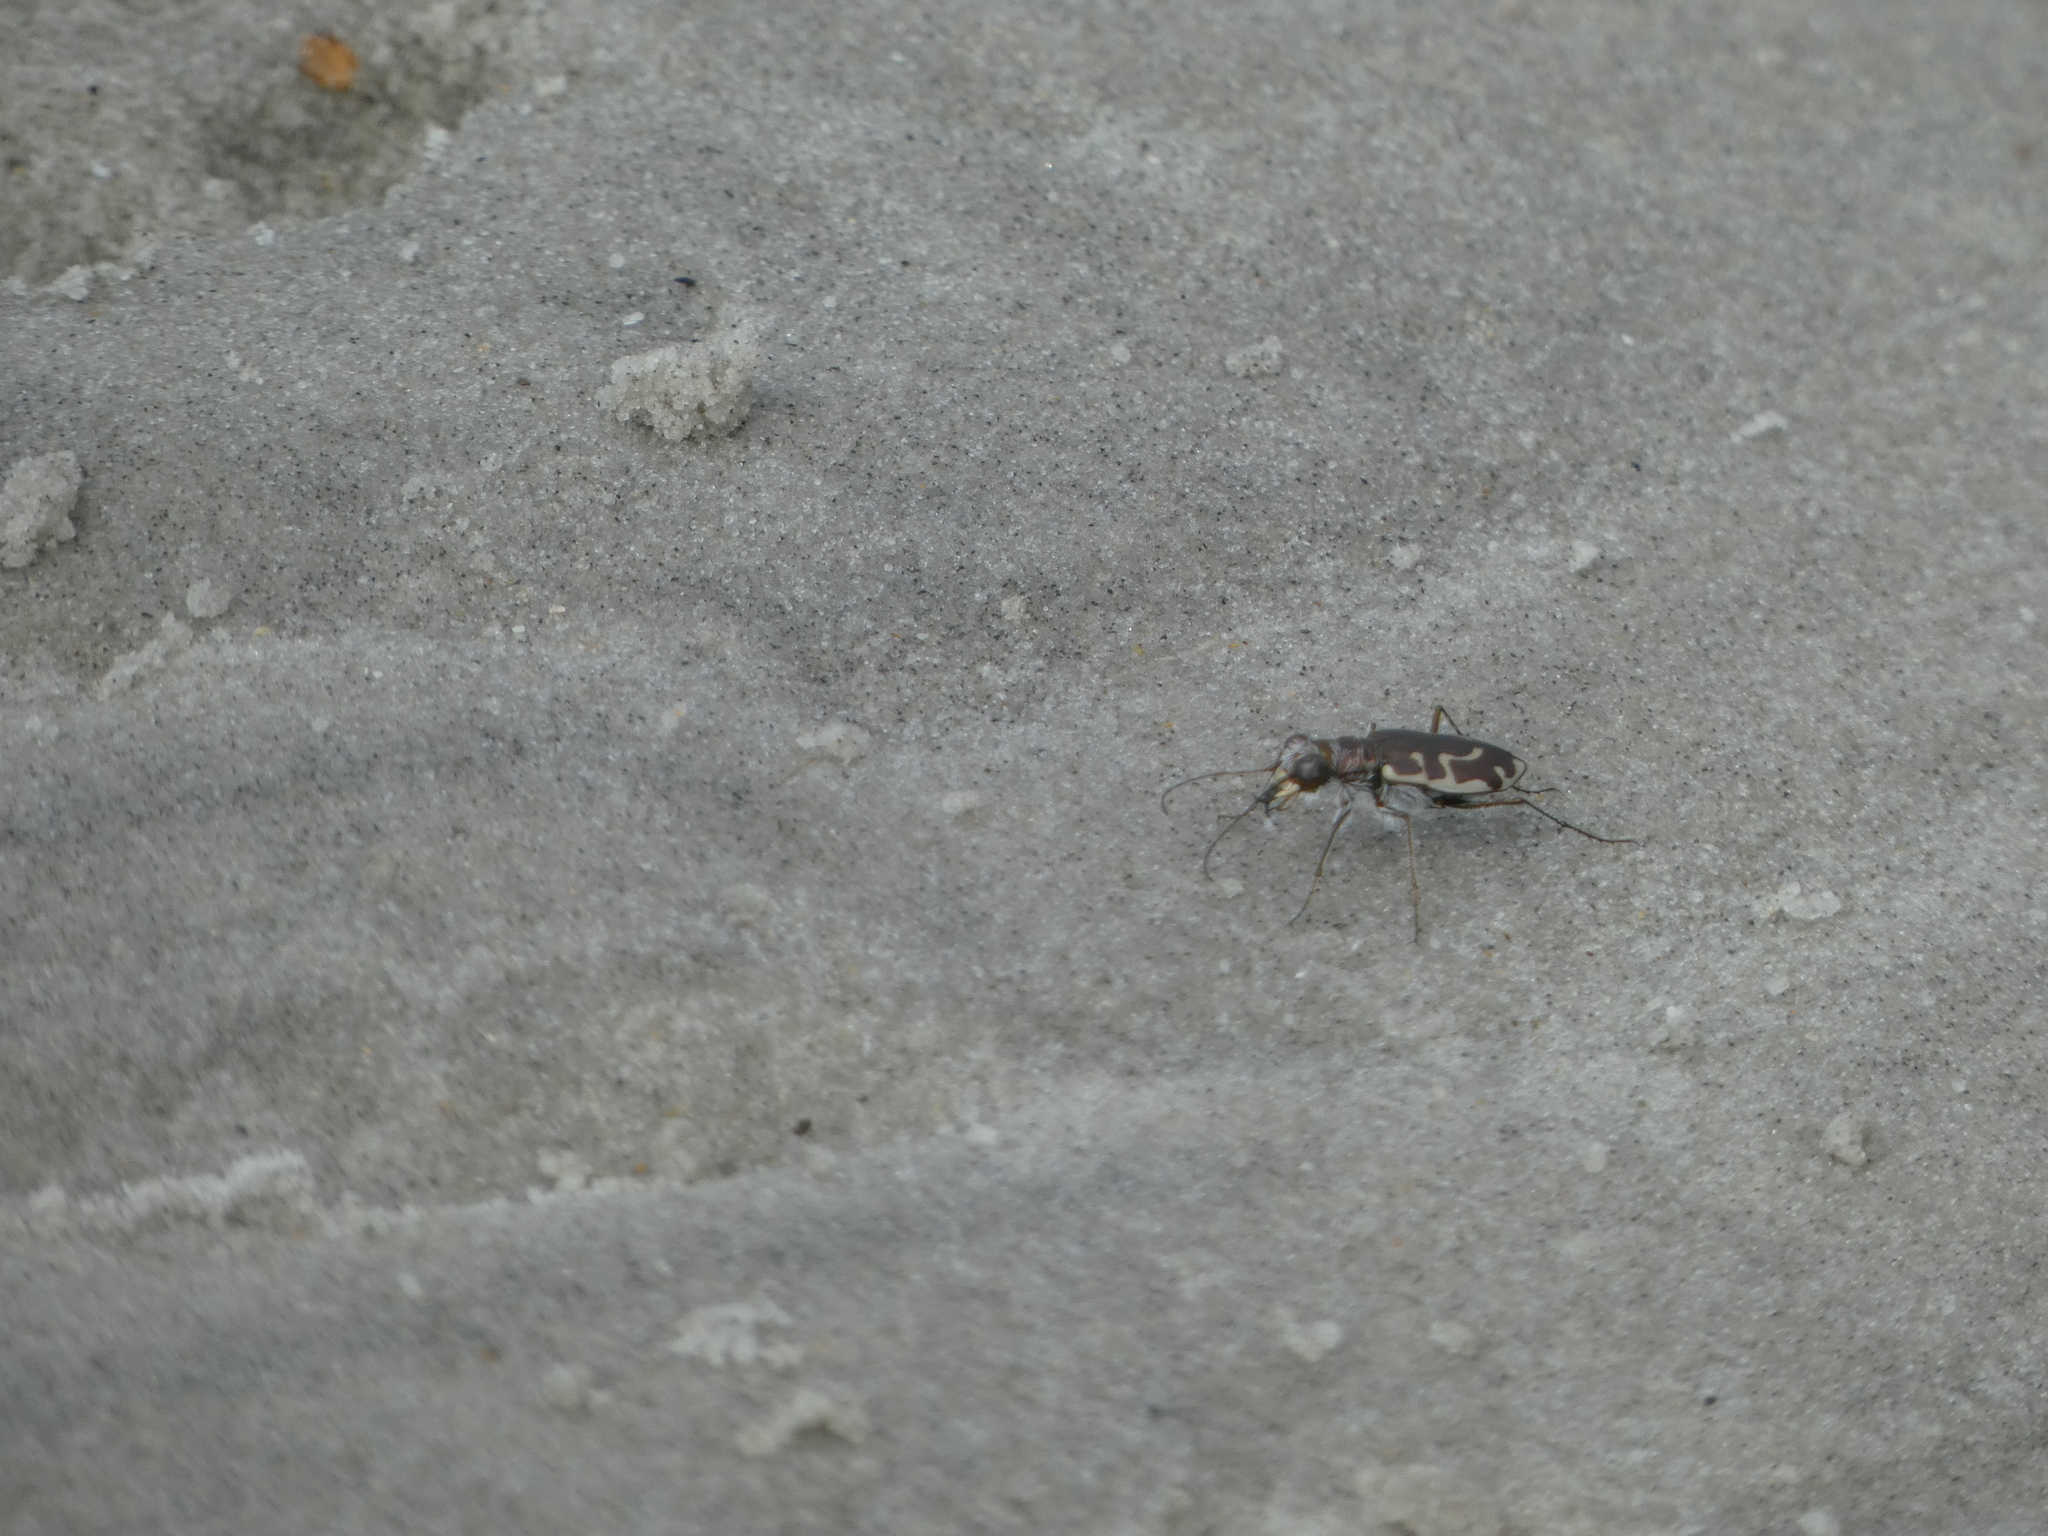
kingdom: Animalia
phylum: Arthropoda
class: Insecta
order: Coleoptera
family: Carabidae
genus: Cicindela
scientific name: Cicindela hirticollis
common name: Hairy-necked tiger beetle
